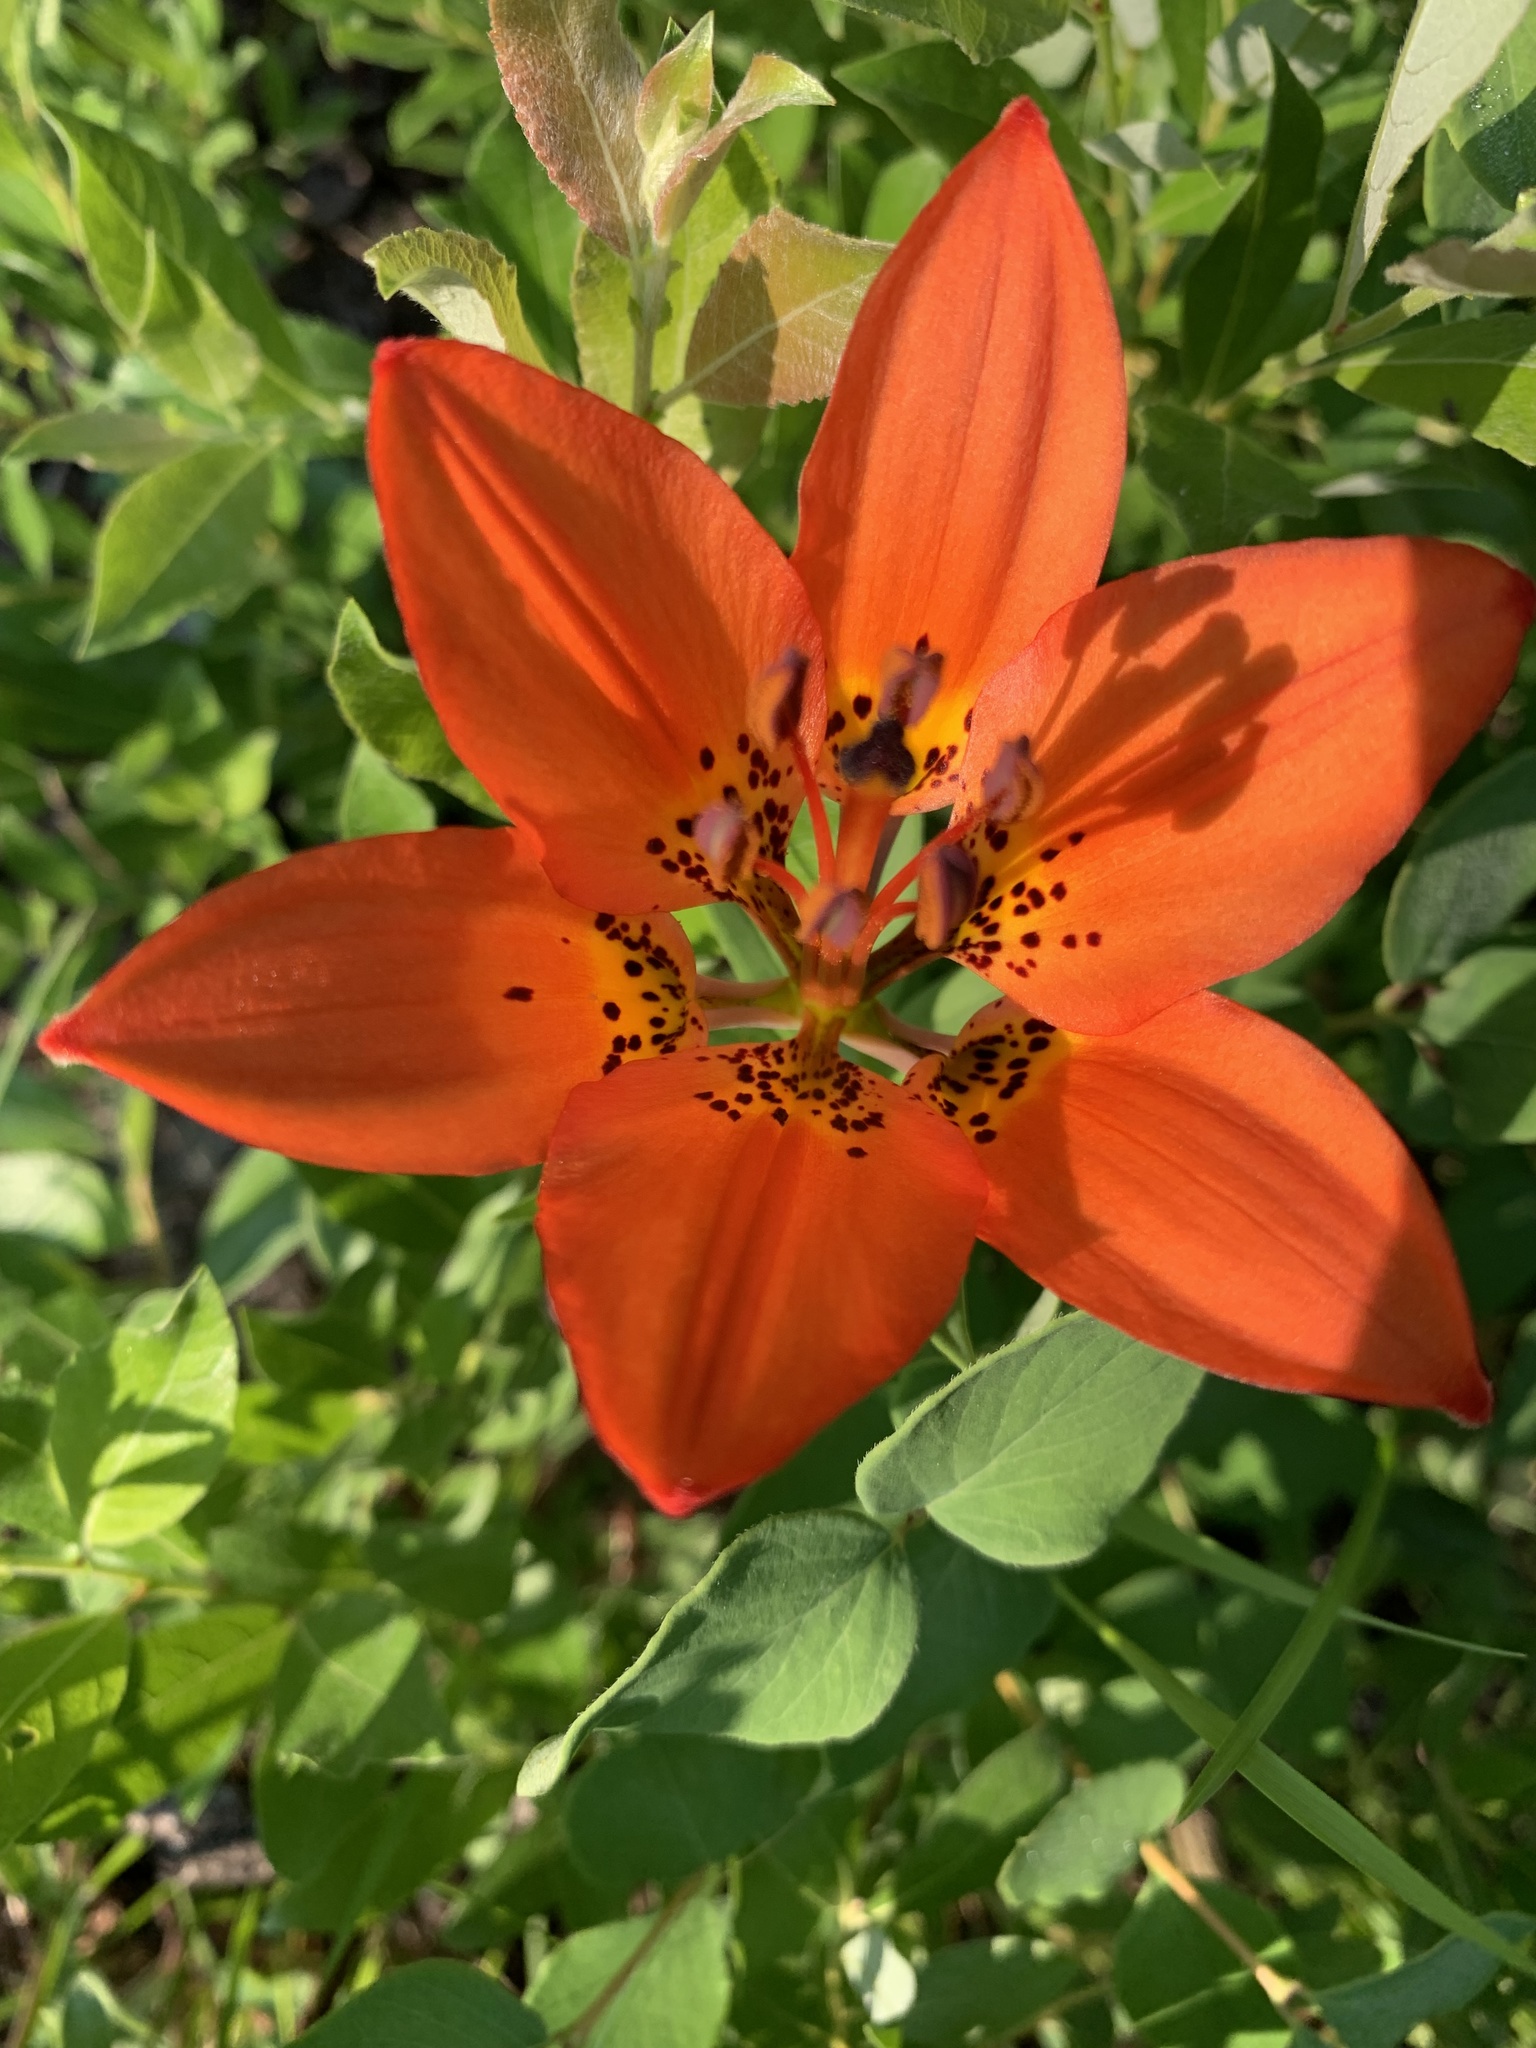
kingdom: Plantae
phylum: Tracheophyta
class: Liliopsida
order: Liliales
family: Liliaceae
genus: Lilium
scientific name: Lilium philadelphicum
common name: Red lily
